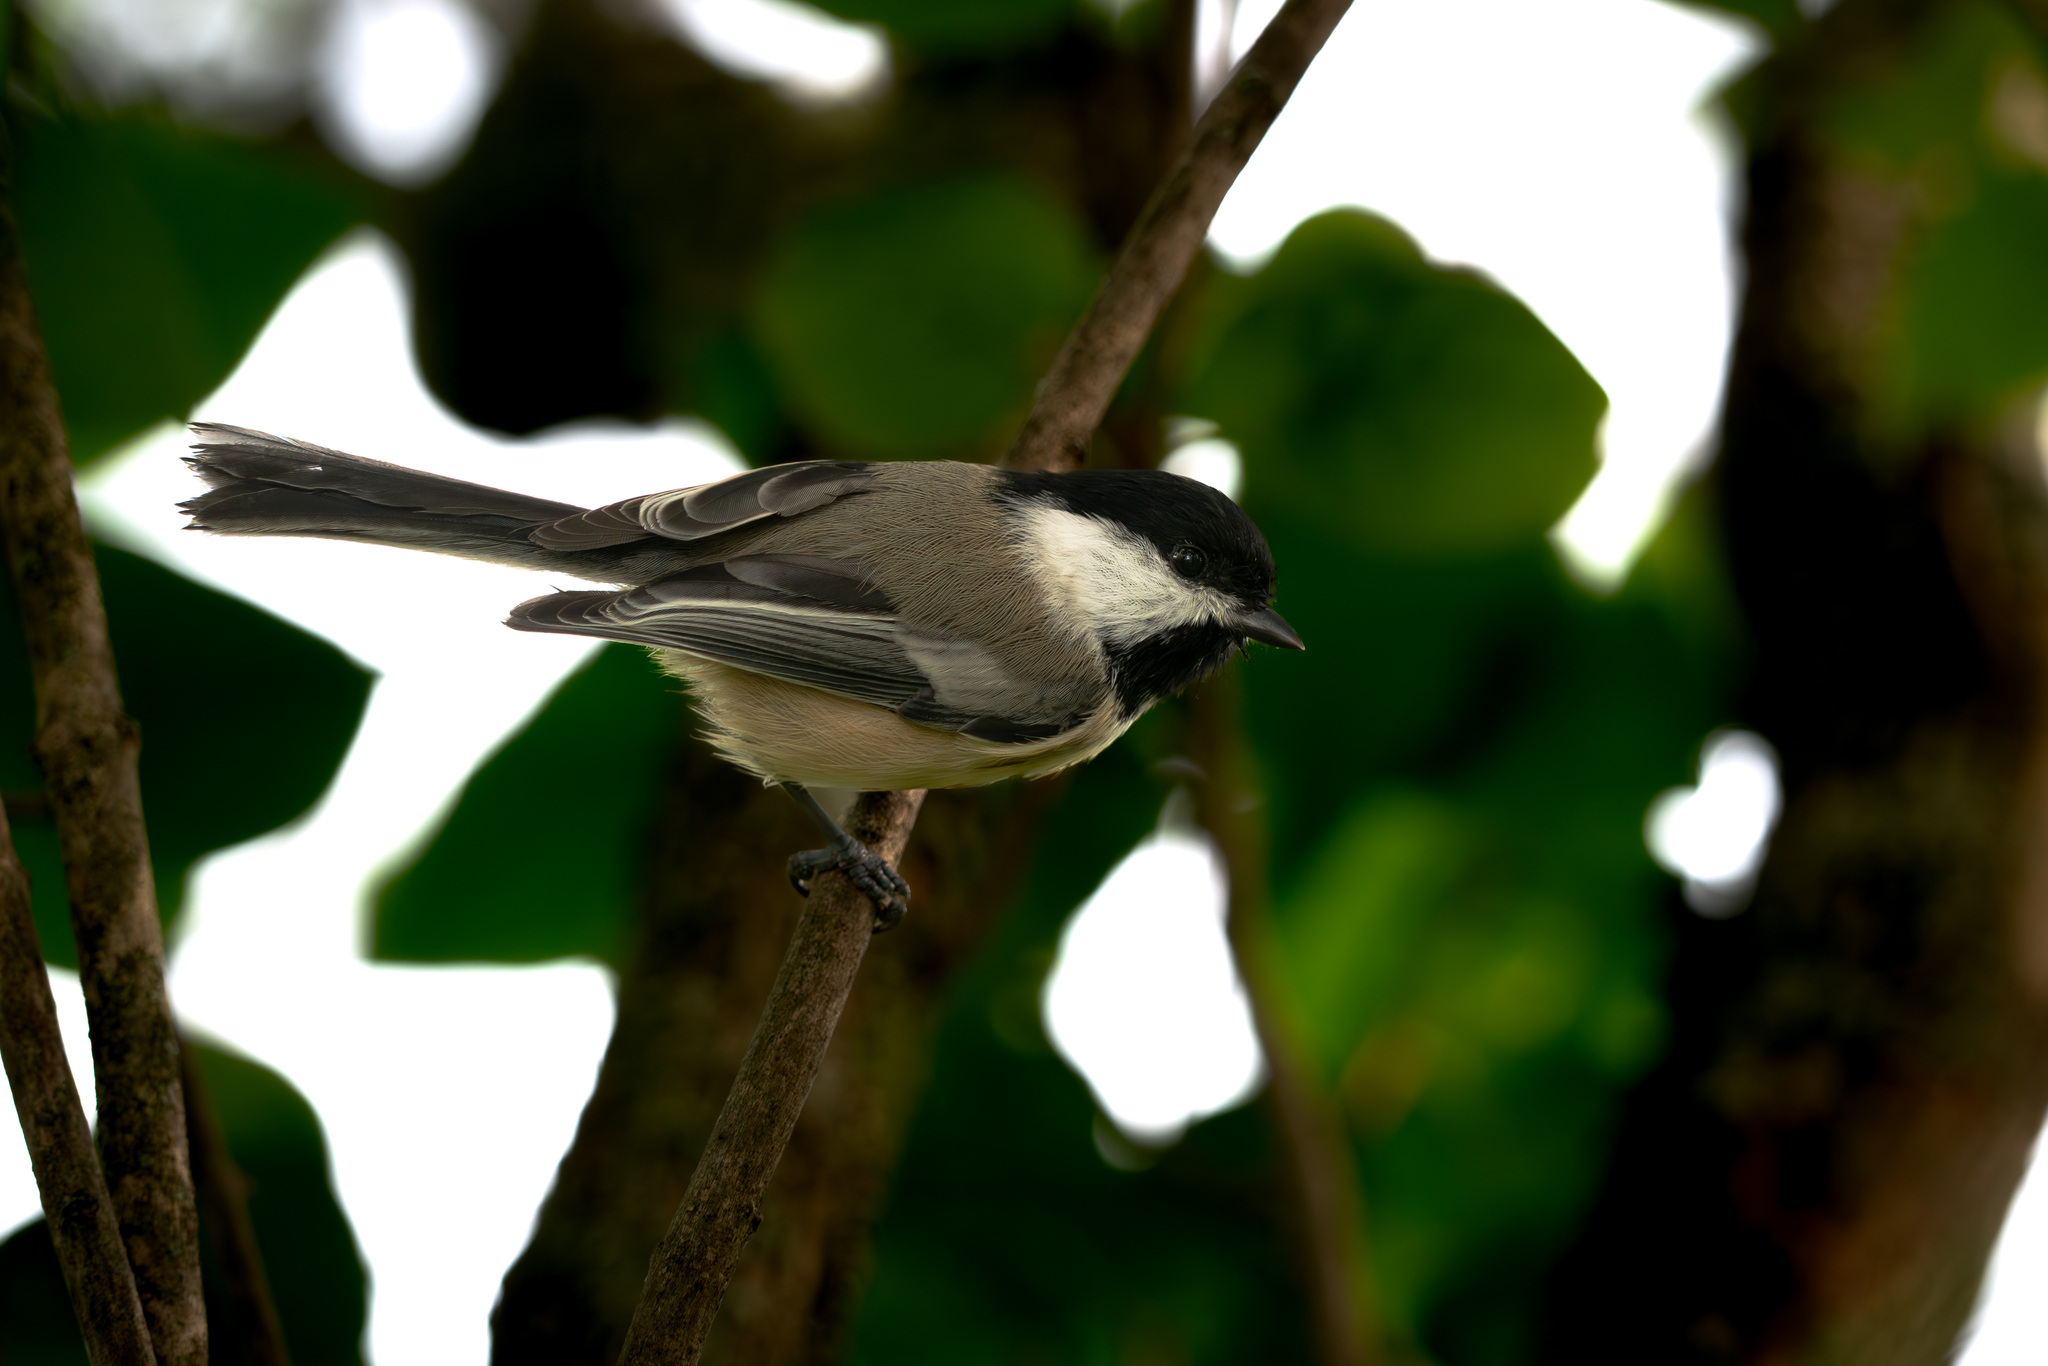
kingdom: Animalia
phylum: Chordata
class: Aves
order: Passeriformes
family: Paridae
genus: Poecile
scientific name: Poecile atricapillus
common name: Black-capped chickadee
